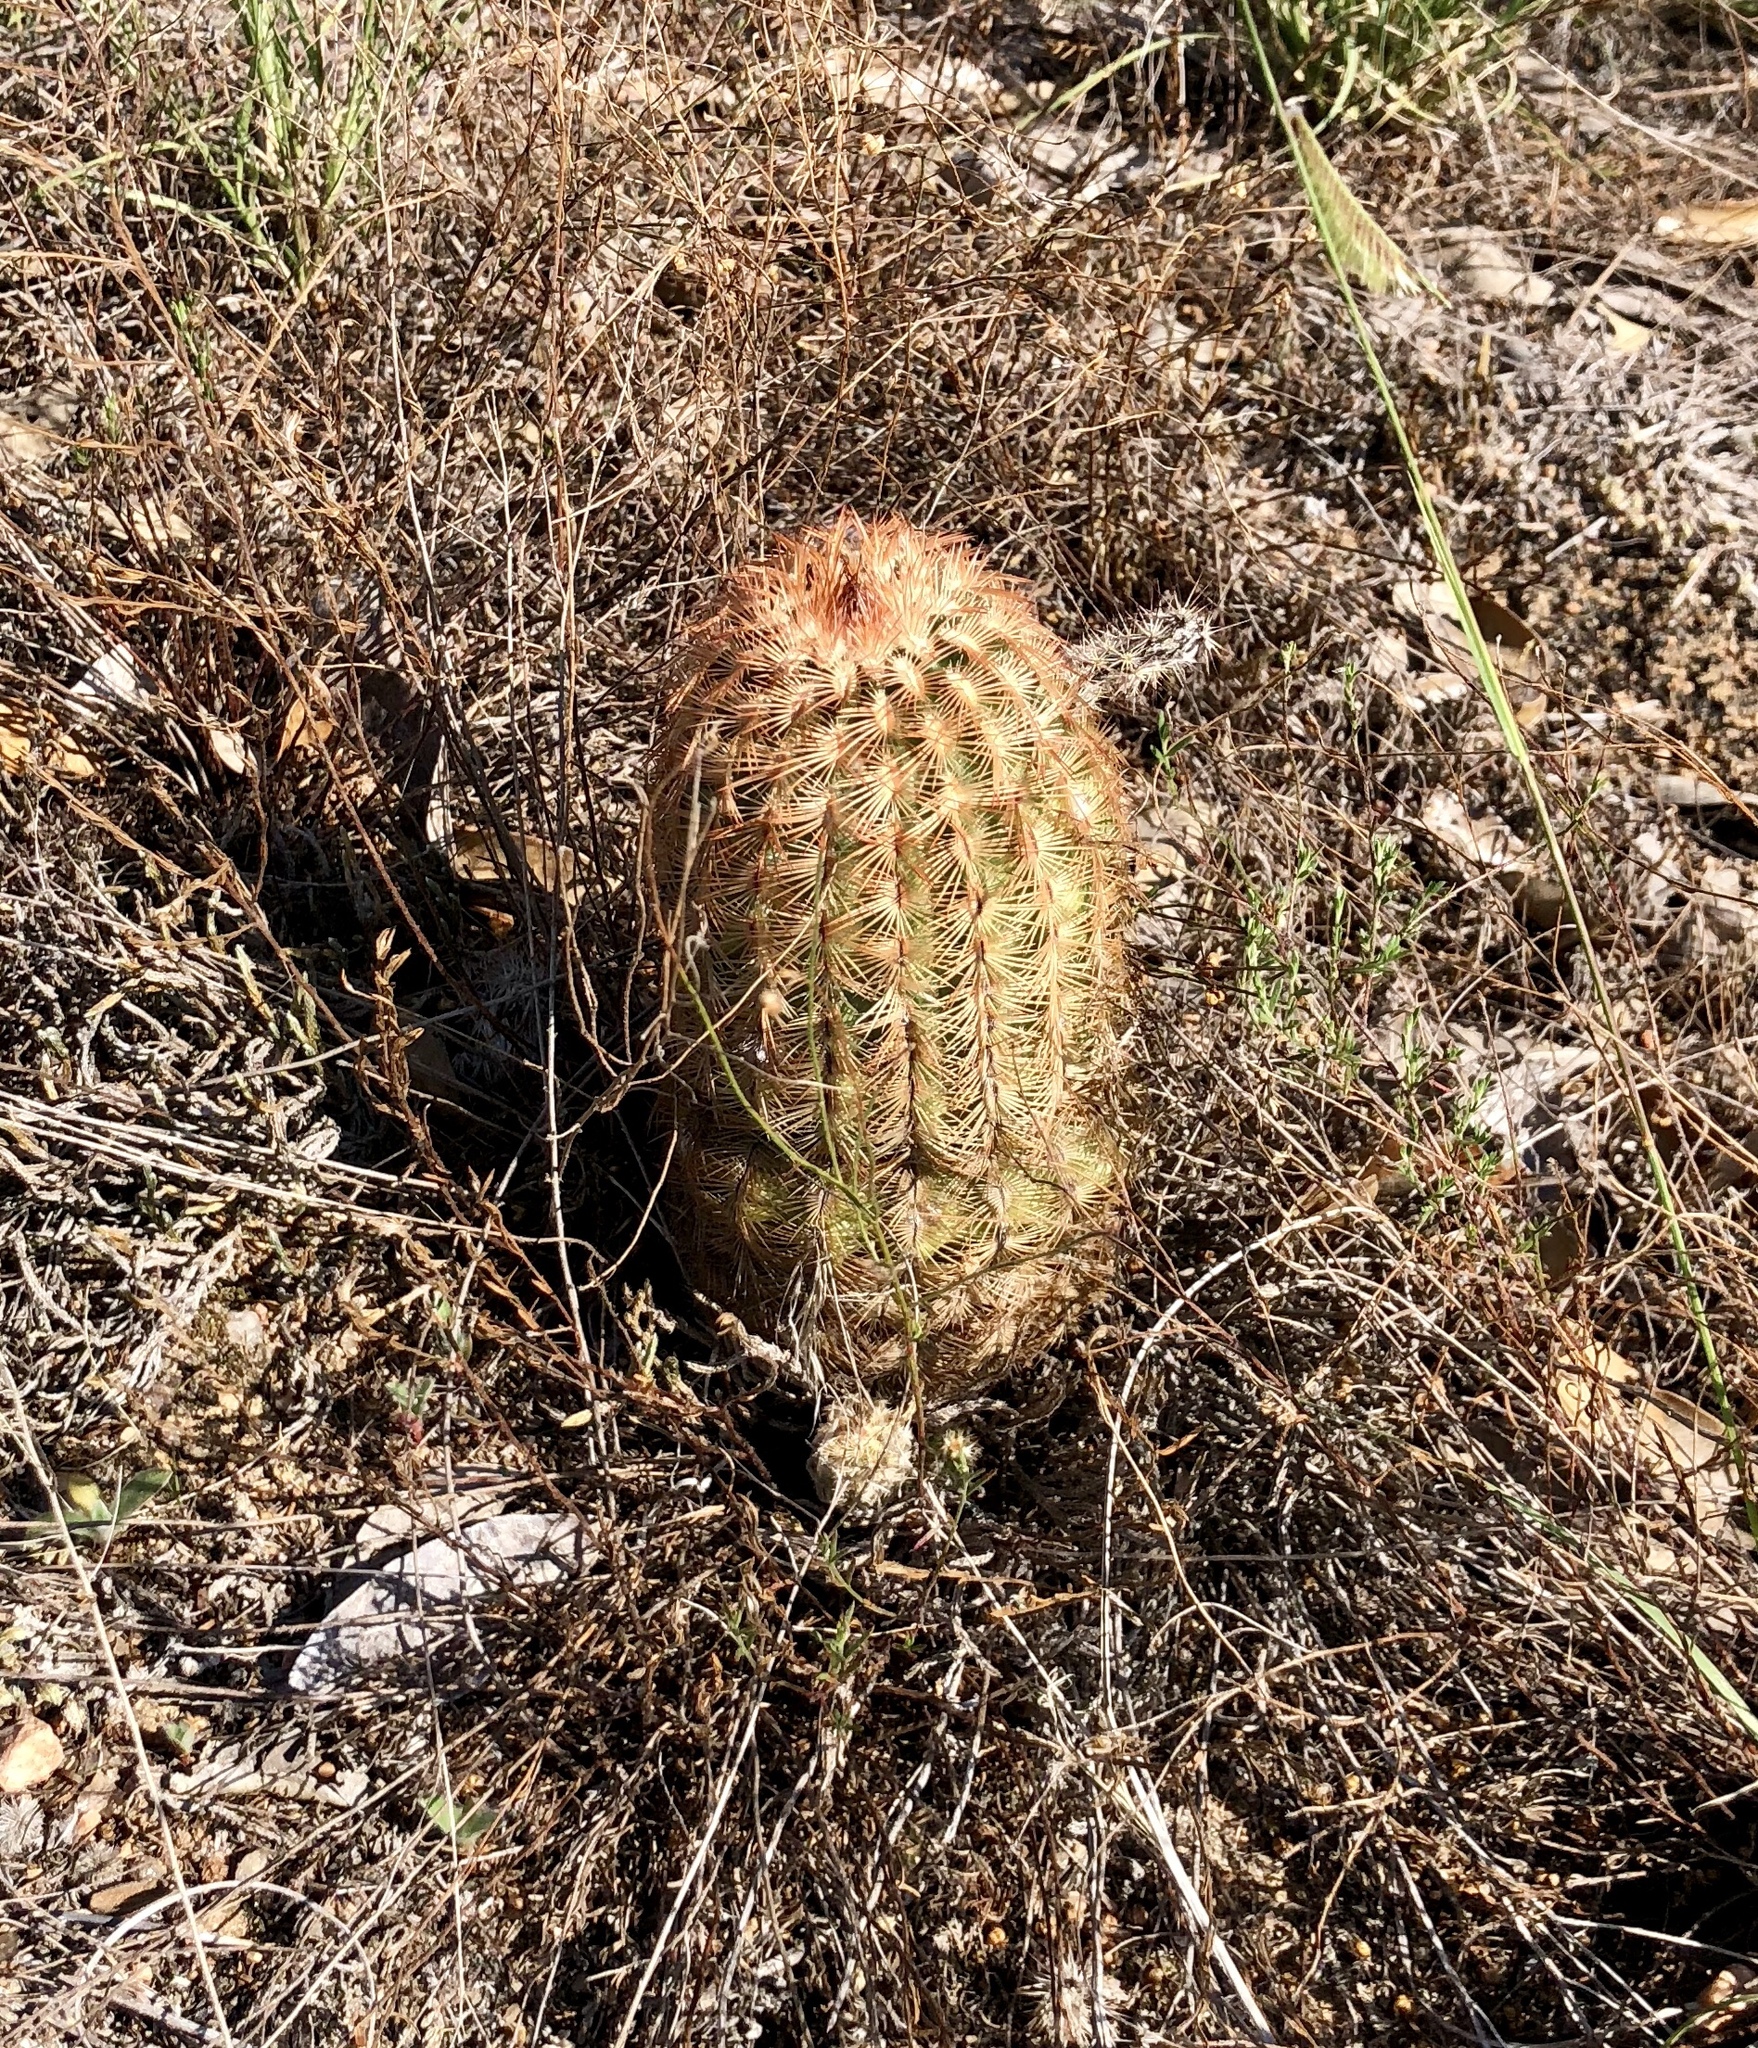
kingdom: Plantae
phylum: Tracheophyta
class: Magnoliopsida
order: Caryophyllales
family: Cactaceae
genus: Echinocereus
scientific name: Echinocereus reichenbachii
